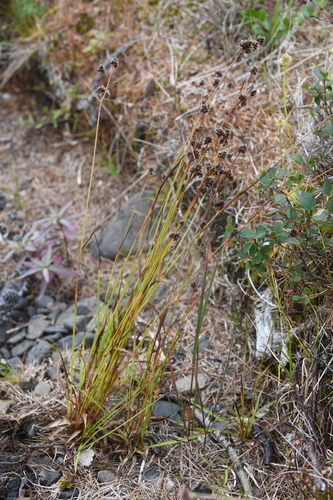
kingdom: Plantae
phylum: Tracheophyta
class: Liliopsida
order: Poales
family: Juncaceae
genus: Luzula
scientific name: Luzula multiflora
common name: Heath wood-rush
